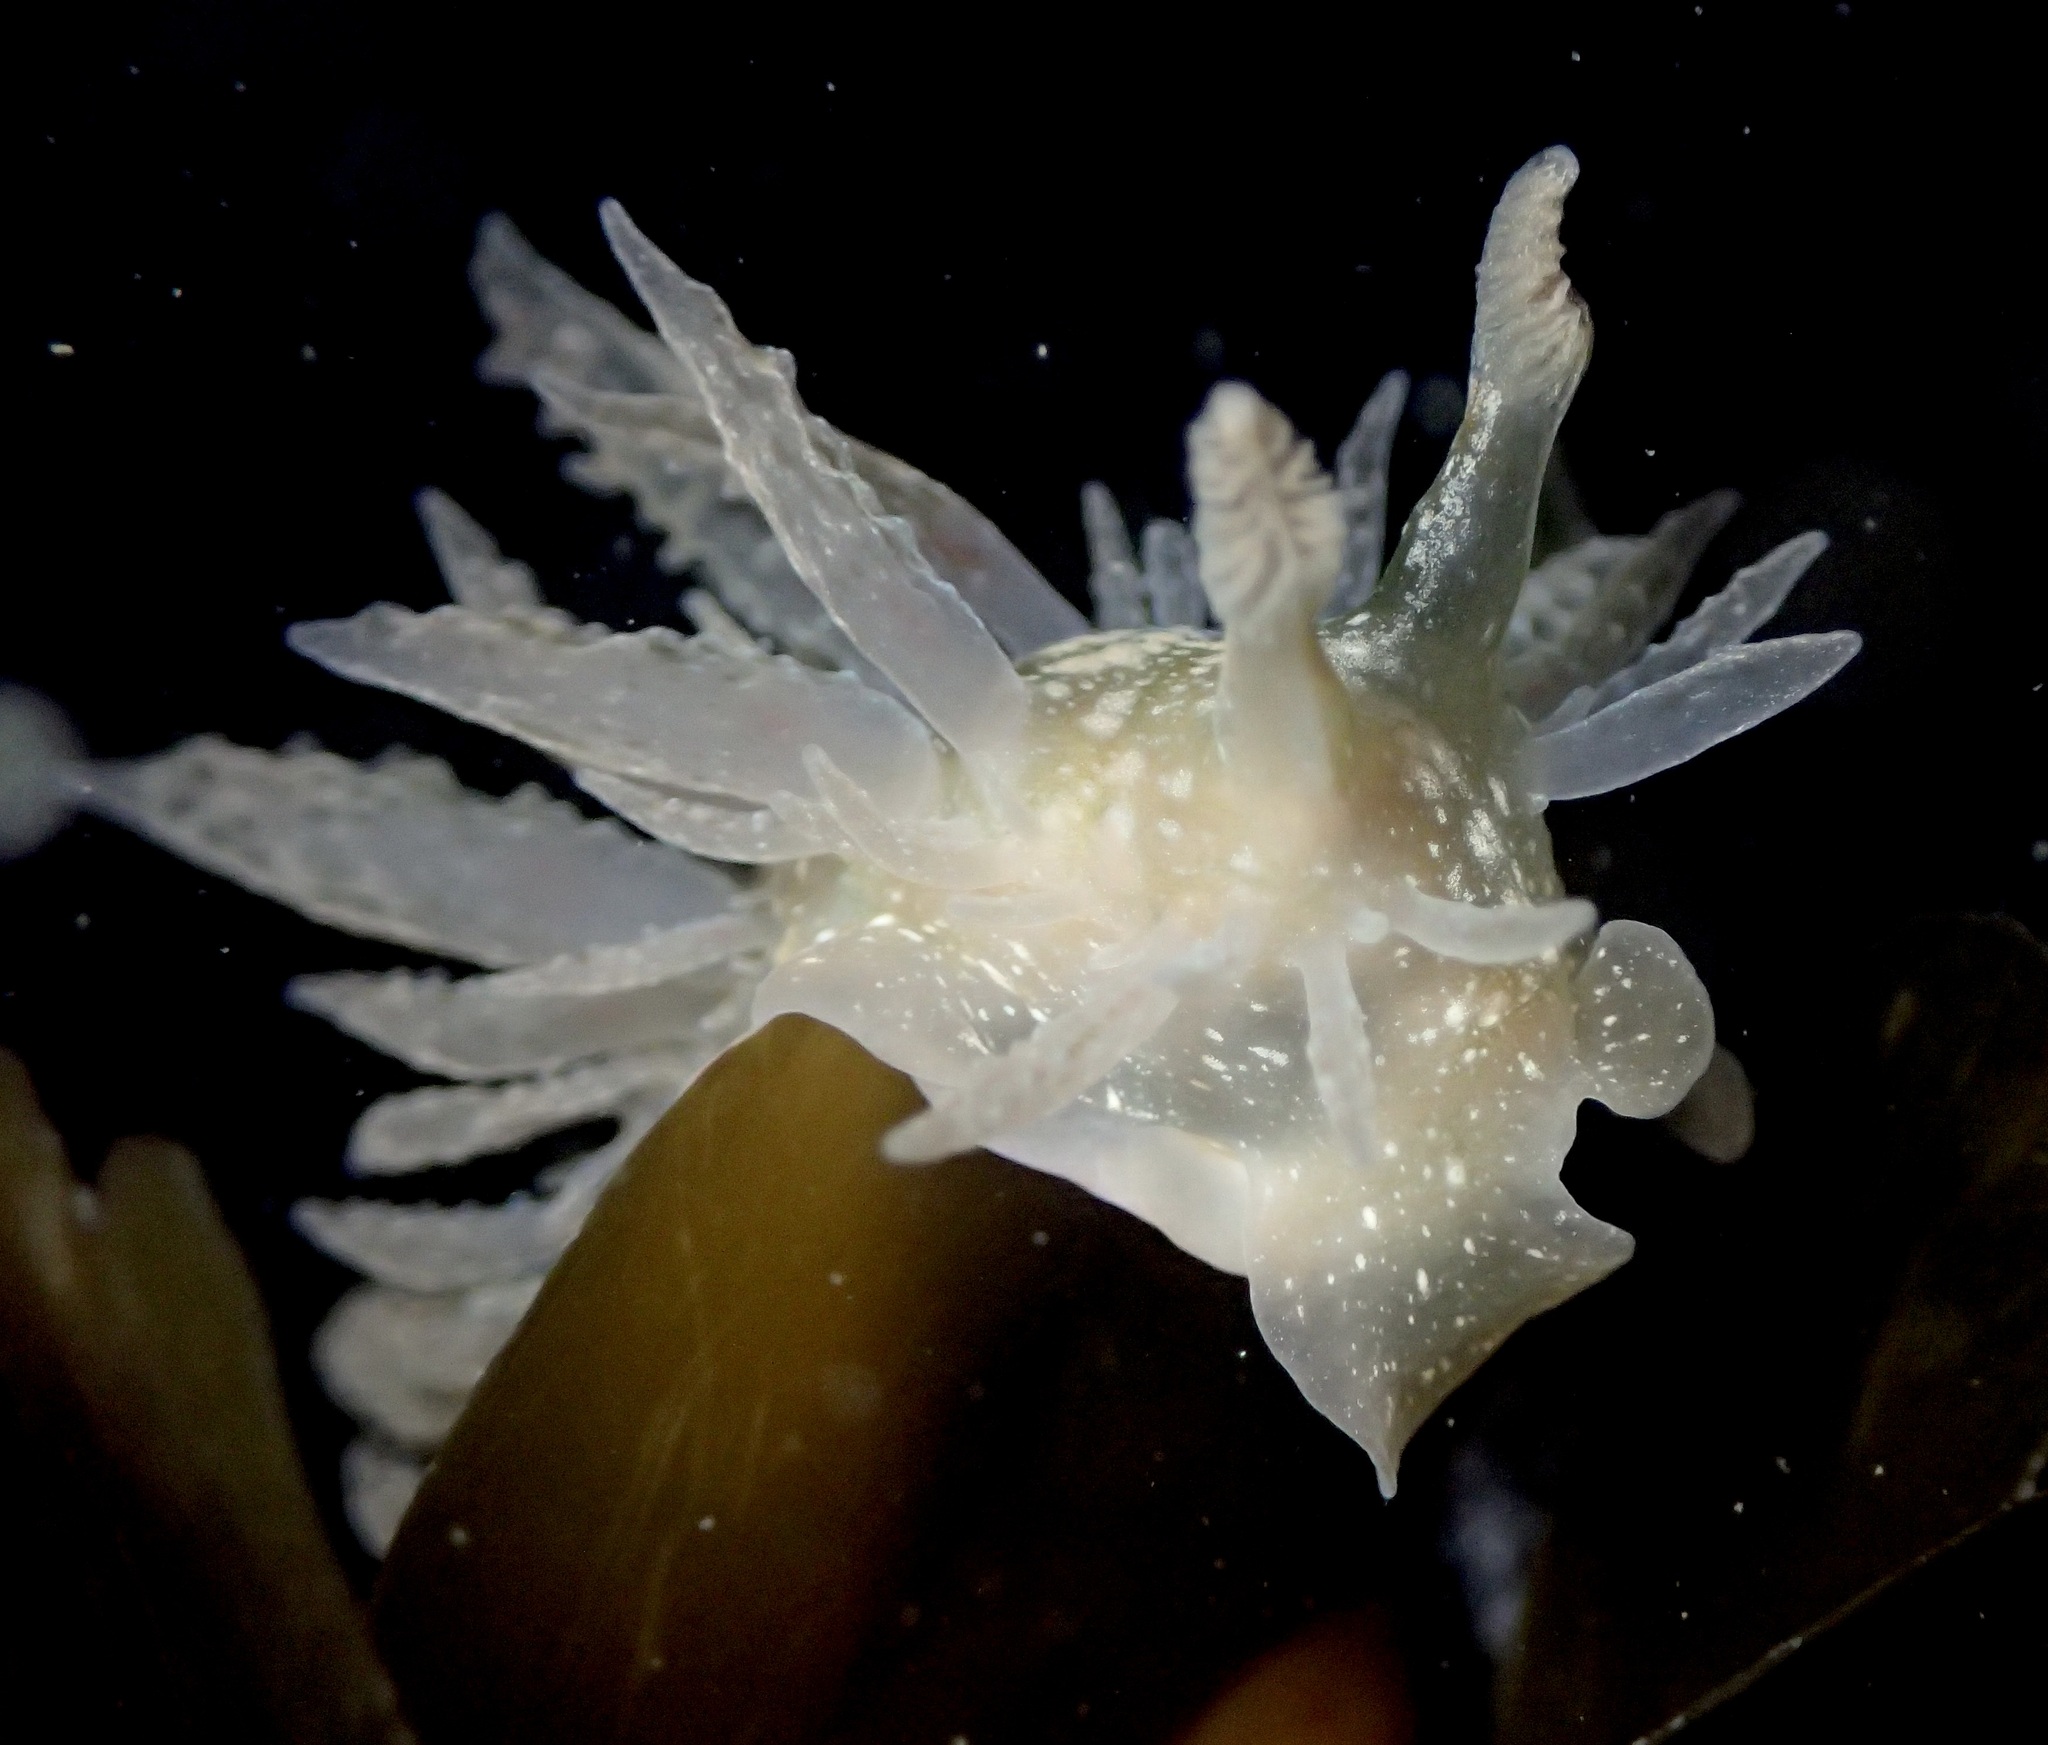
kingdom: Animalia
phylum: Mollusca
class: Gastropoda
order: Nudibranchia
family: Dironidae
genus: Dirona
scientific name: Dirona picta
